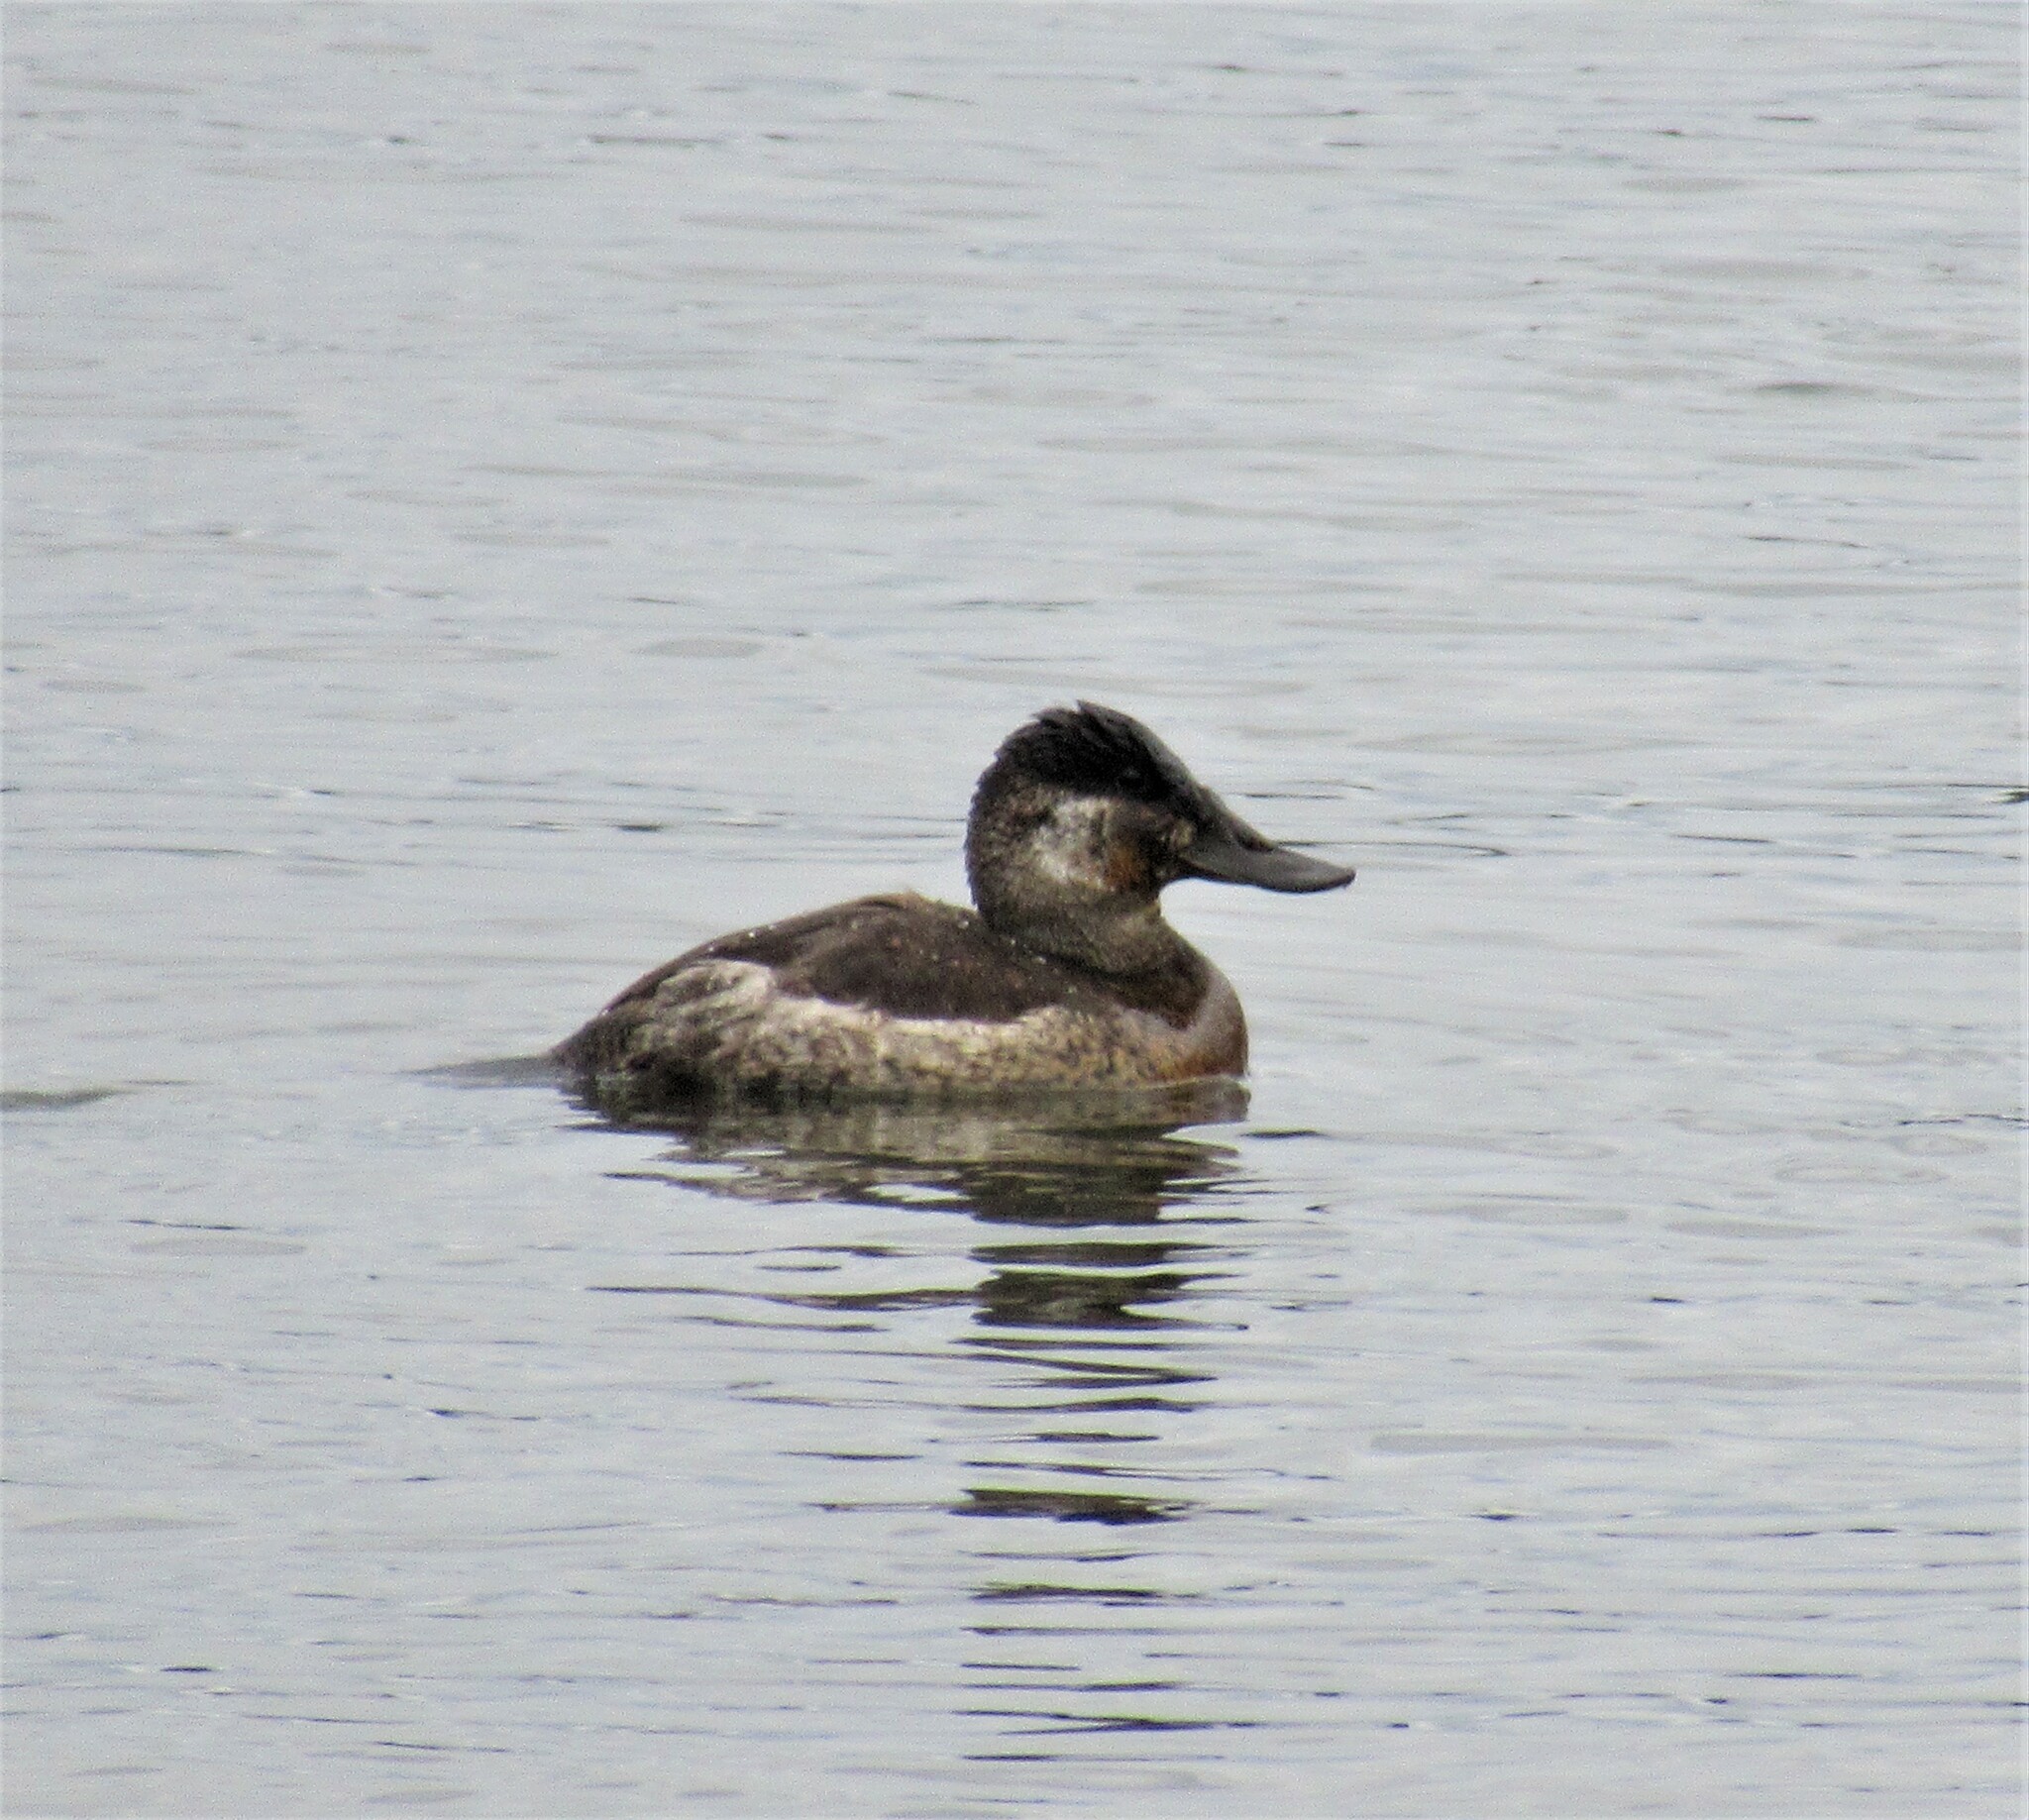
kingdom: Animalia
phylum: Chordata
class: Aves
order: Anseriformes
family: Anatidae
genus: Oxyura
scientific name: Oxyura jamaicensis
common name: Ruddy duck
